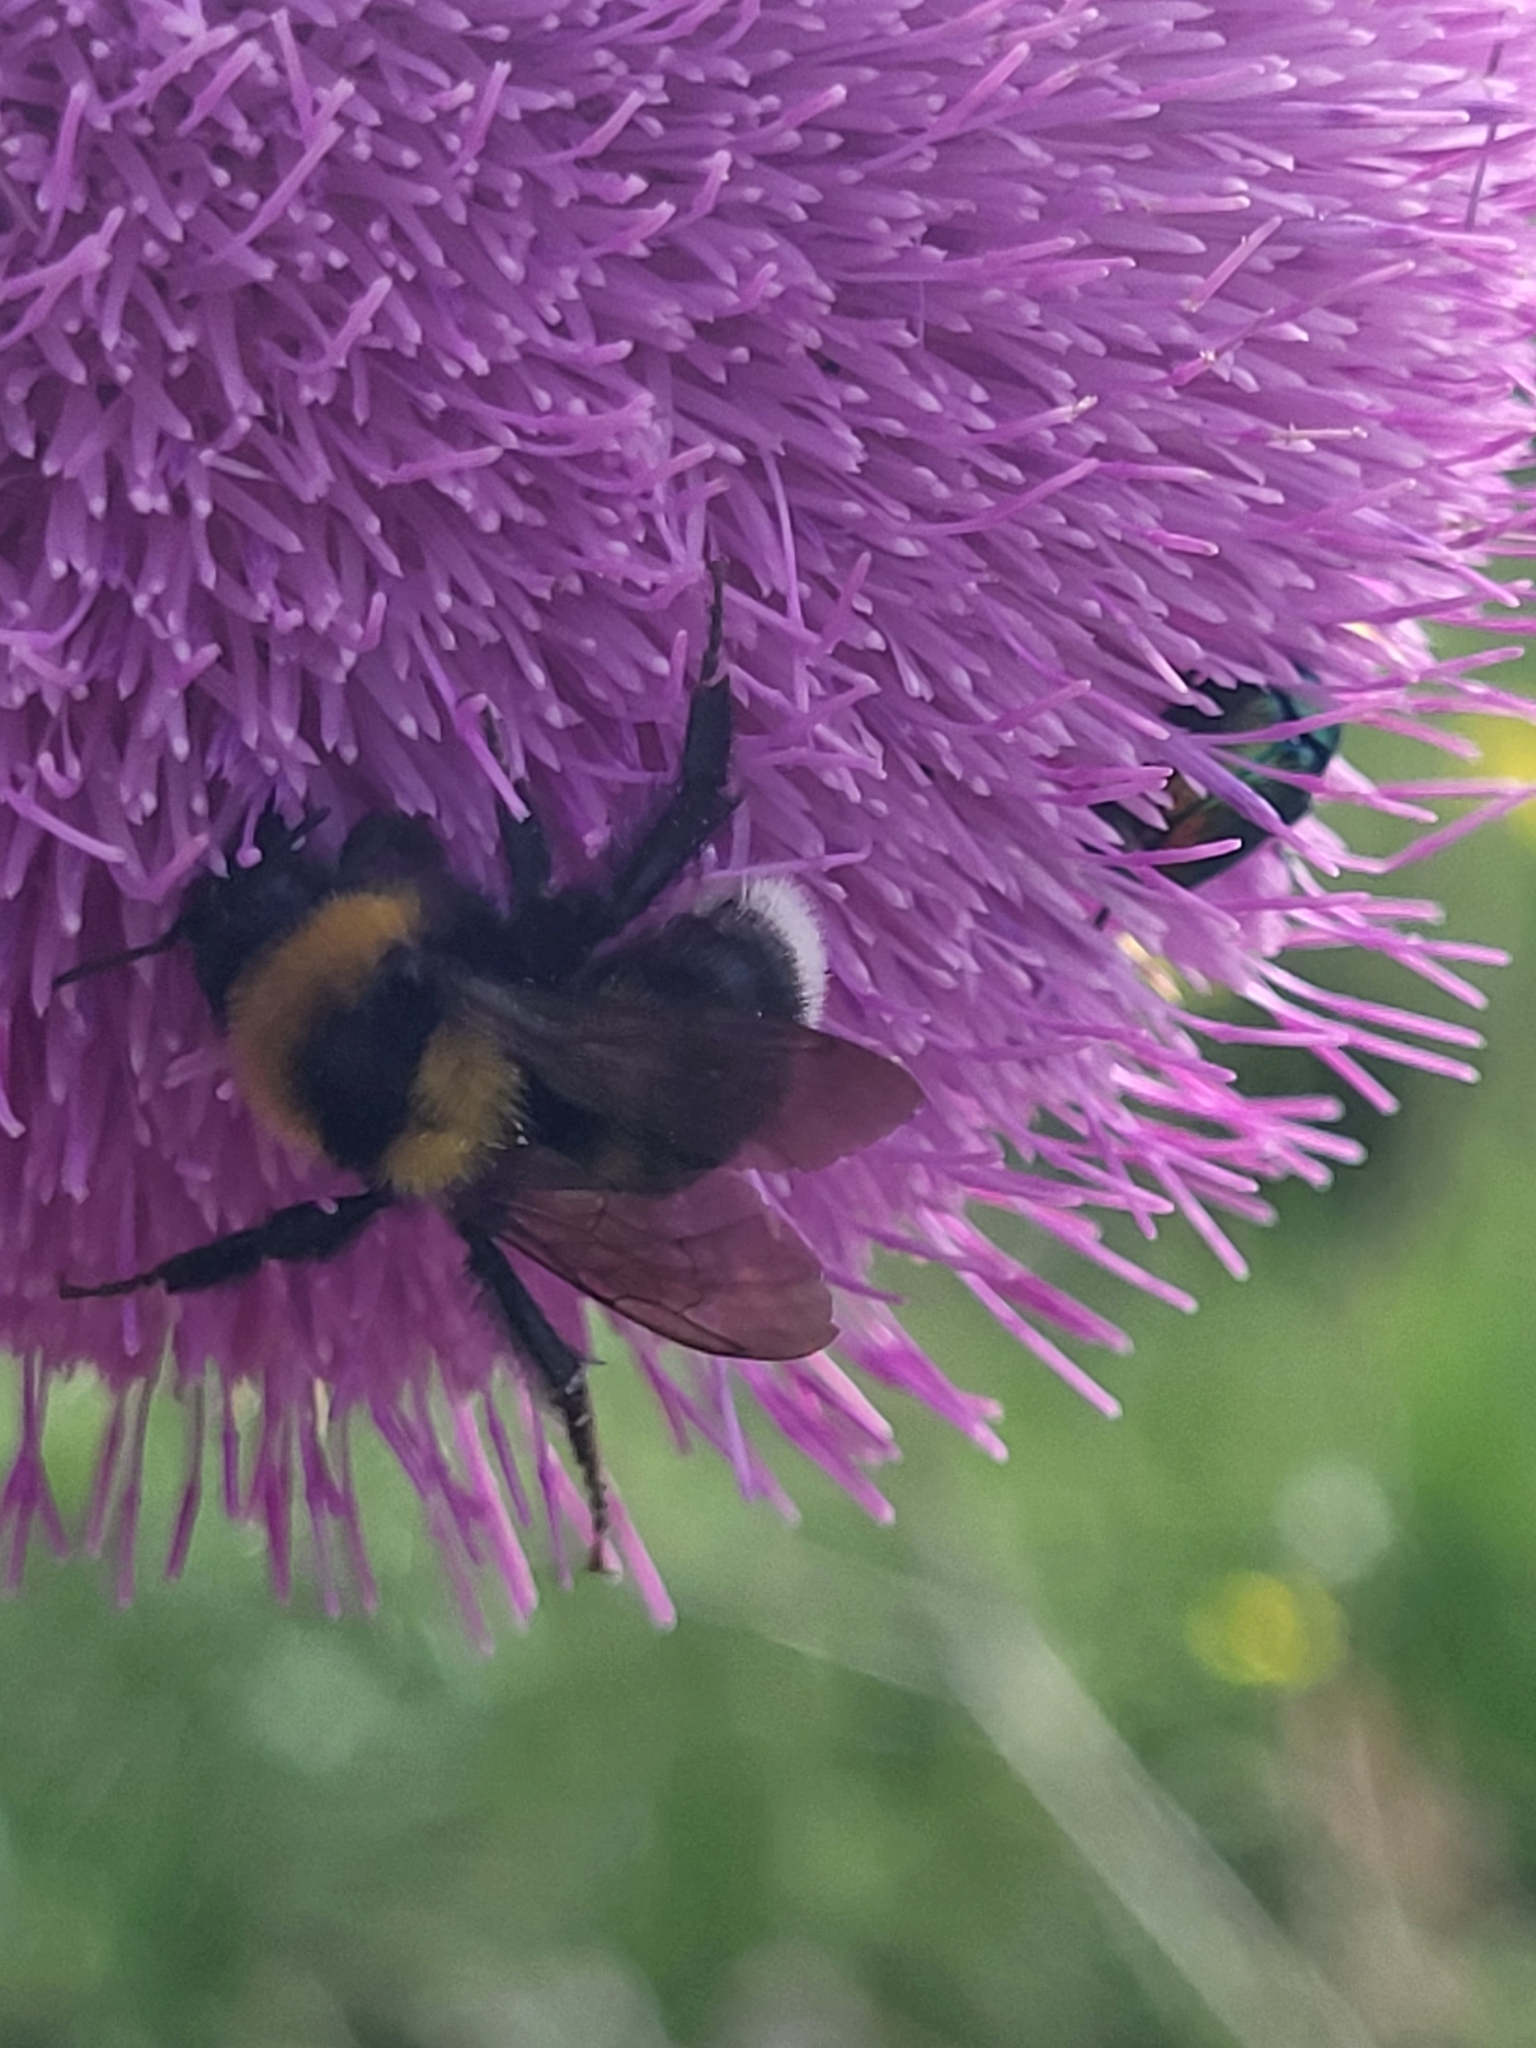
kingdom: Animalia
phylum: Arthropoda
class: Insecta
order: Hymenoptera
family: Apidae
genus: Bombus
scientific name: Bombus argillaceus
